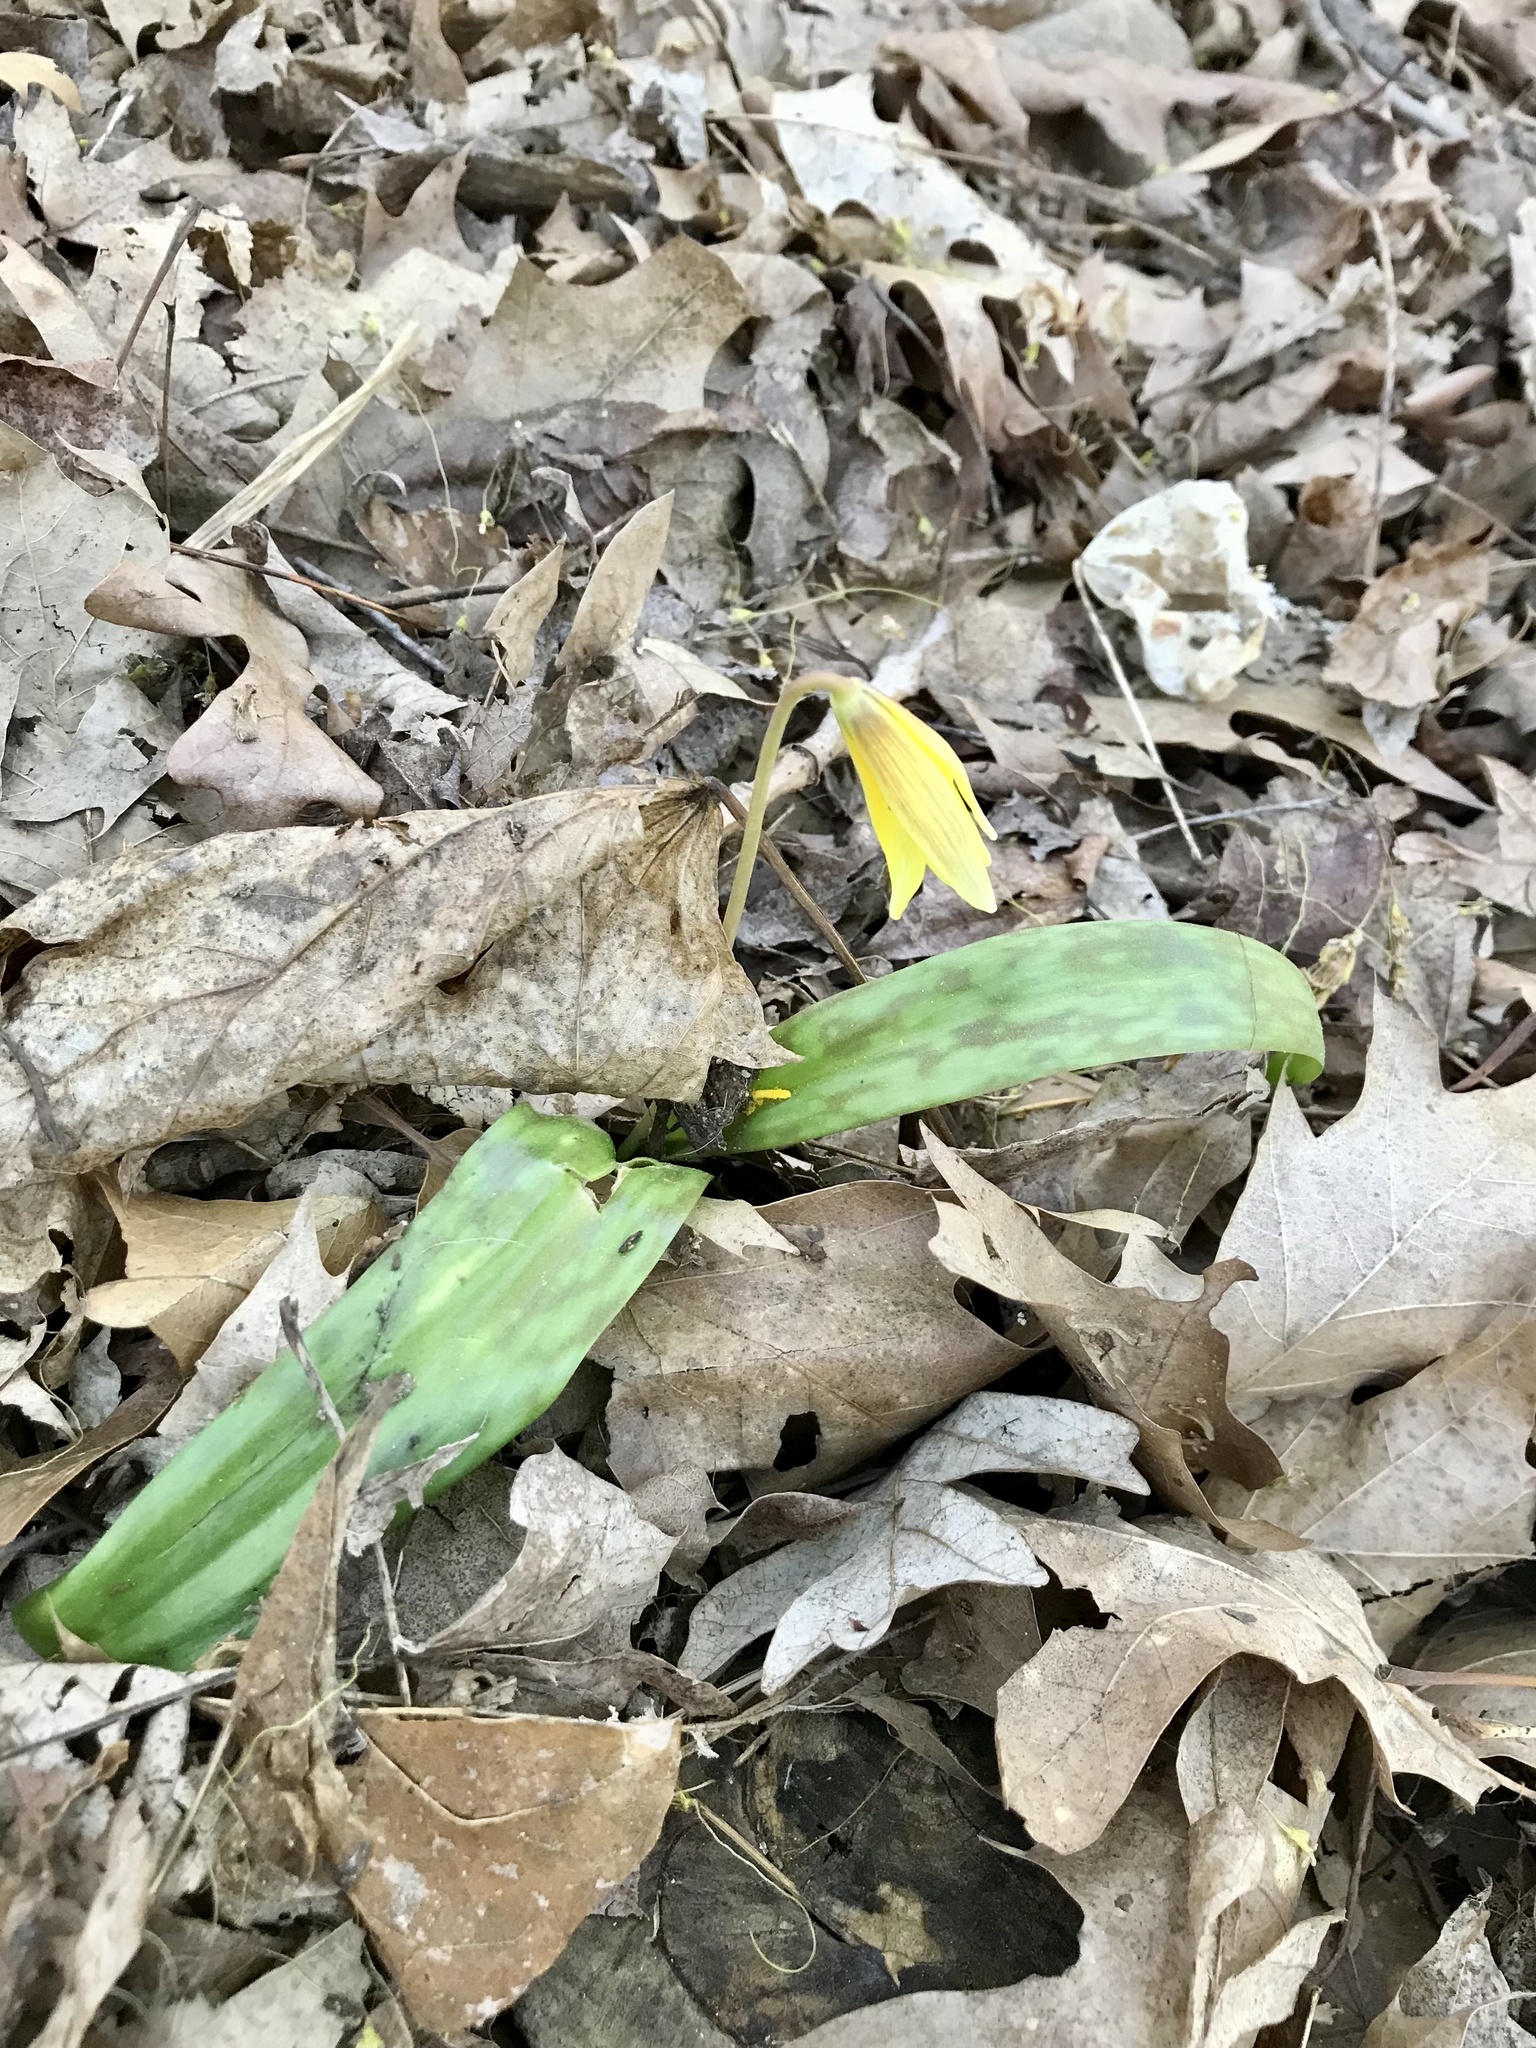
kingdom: Plantae
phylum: Tracheophyta
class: Liliopsida
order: Liliales
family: Liliaceae
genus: Erythronium
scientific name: Erythronium americanum
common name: Yellow adder's-tongue
